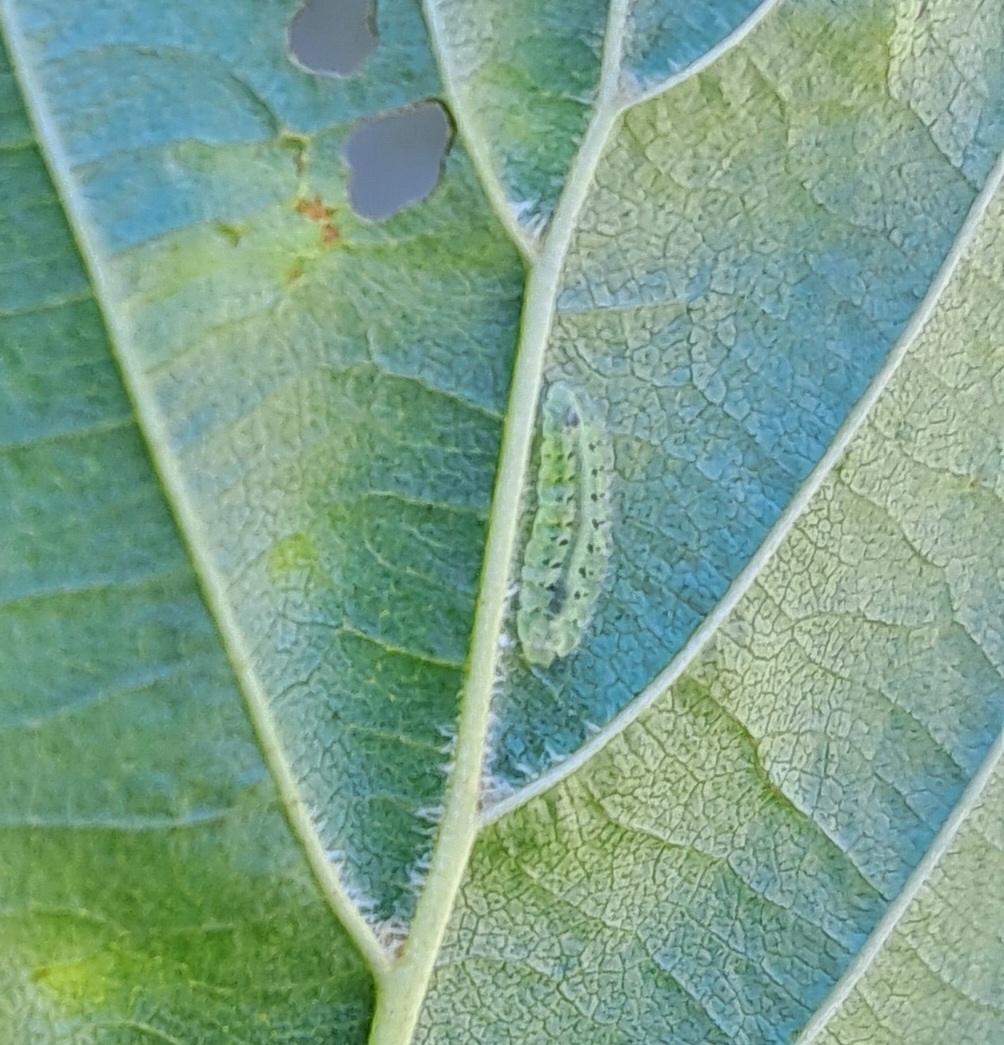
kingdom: Animalia
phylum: Arthropoda
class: Insecta
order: Hymenoptera
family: Tenthredinidae
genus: Platycampus
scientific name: Platycampus luridiventris
